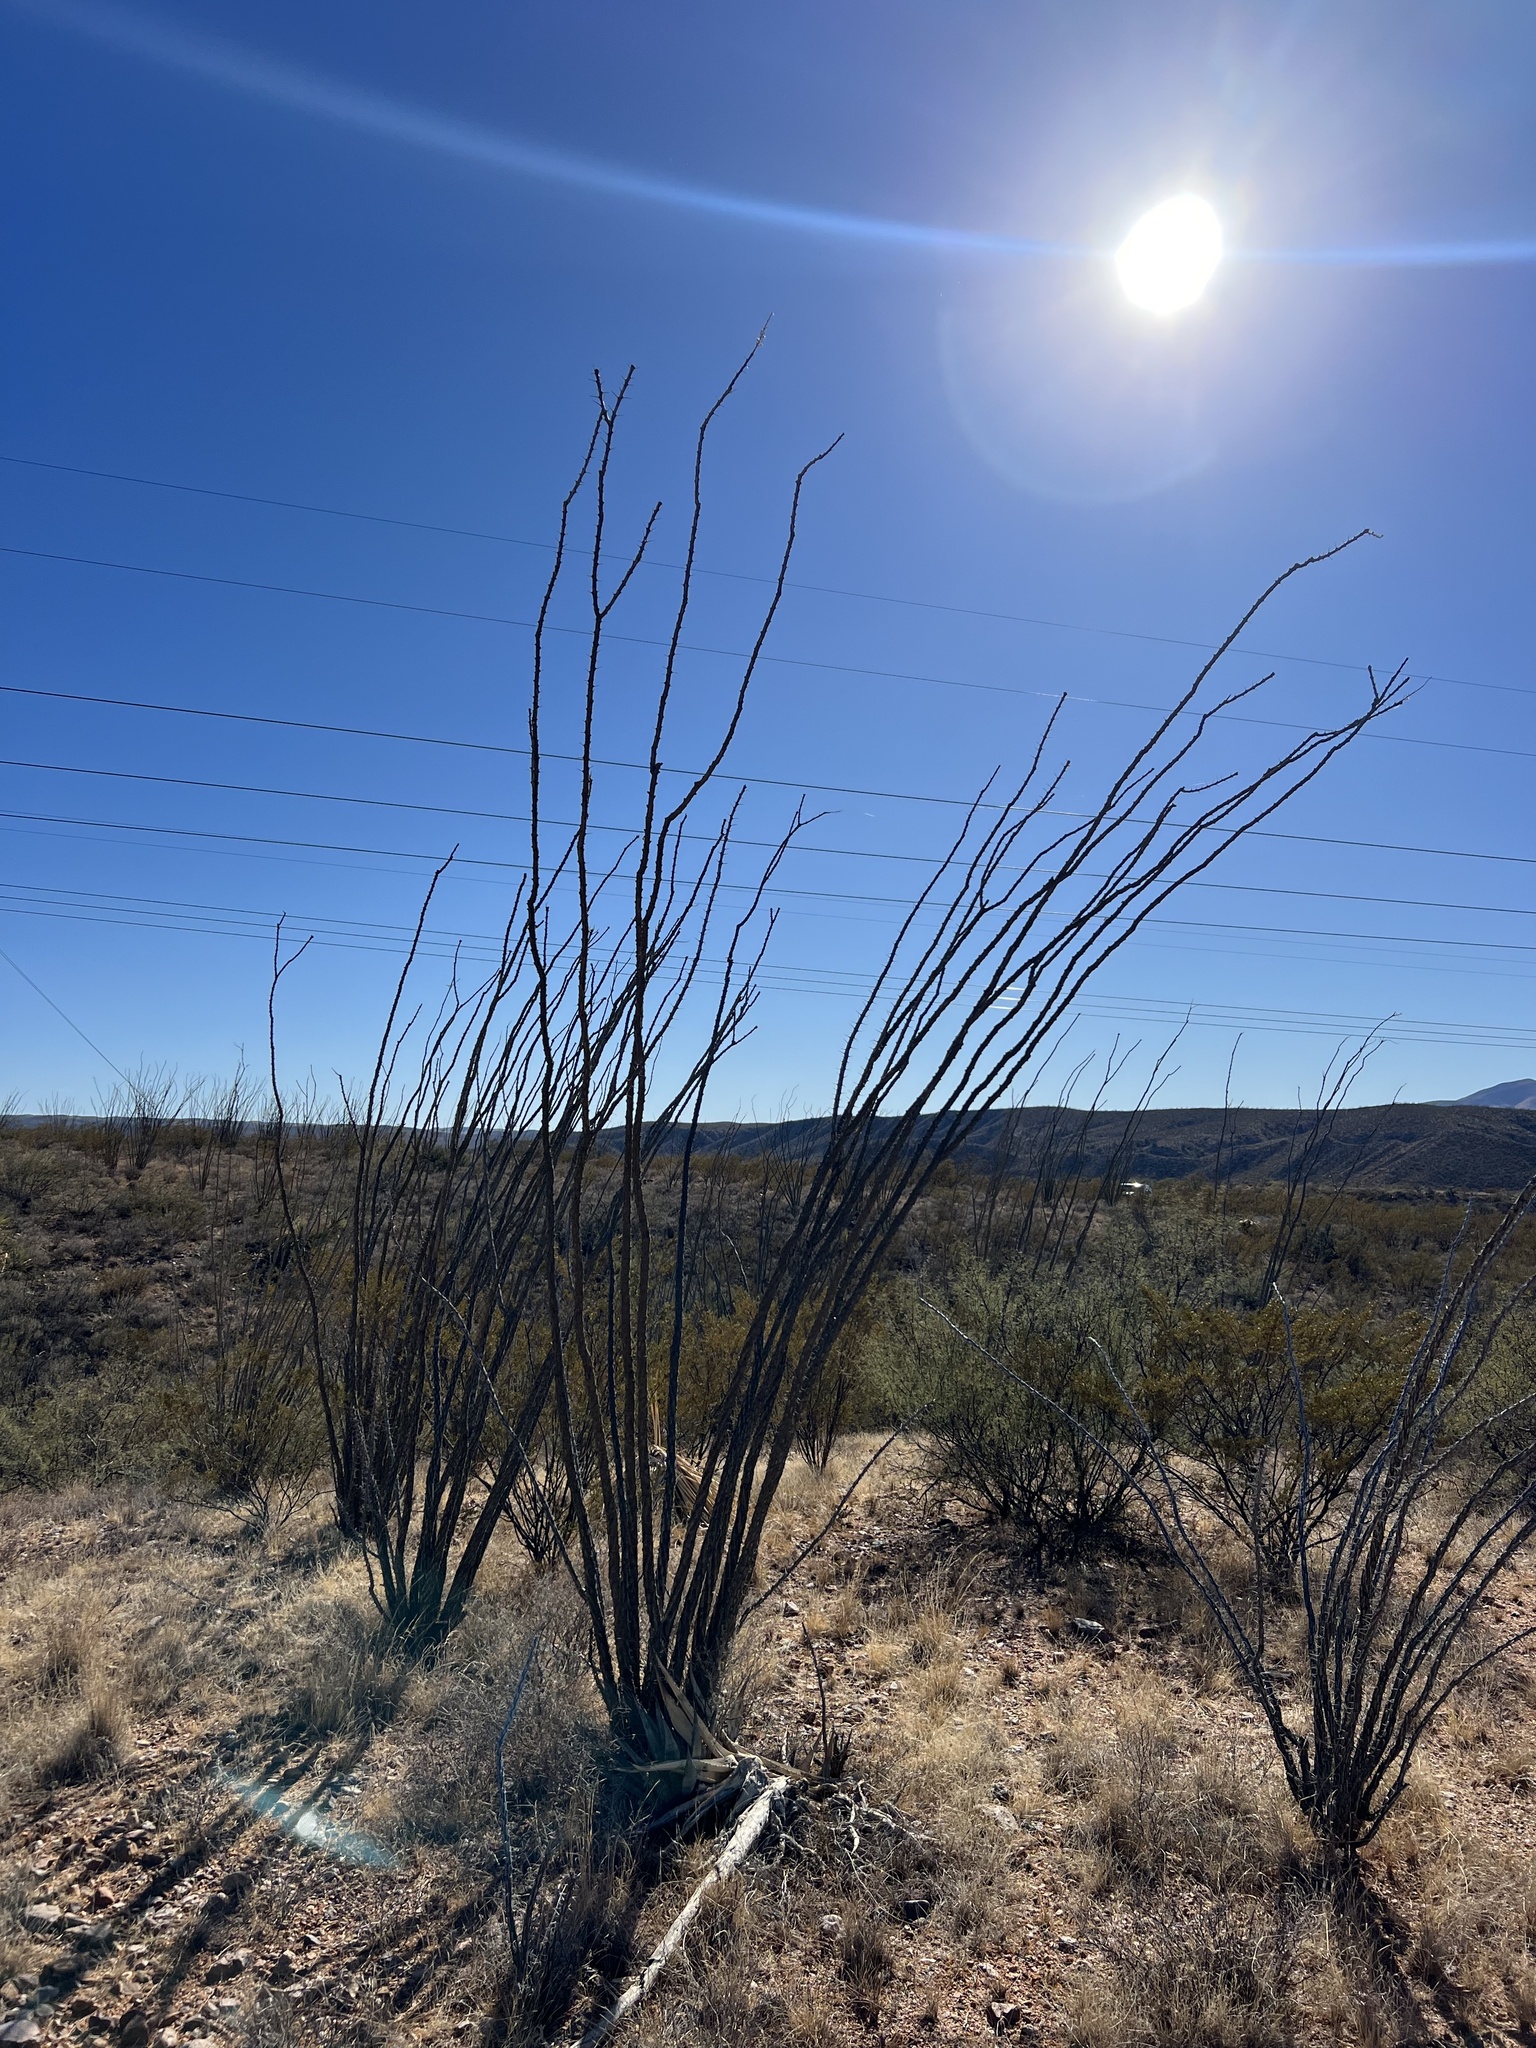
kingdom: Plantae
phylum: Tracheophyta
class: Magnoliopsida
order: Ericales
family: Fouquieriaceae
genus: Fouquieria
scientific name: Fouquieria splendens
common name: Vine-cactus
